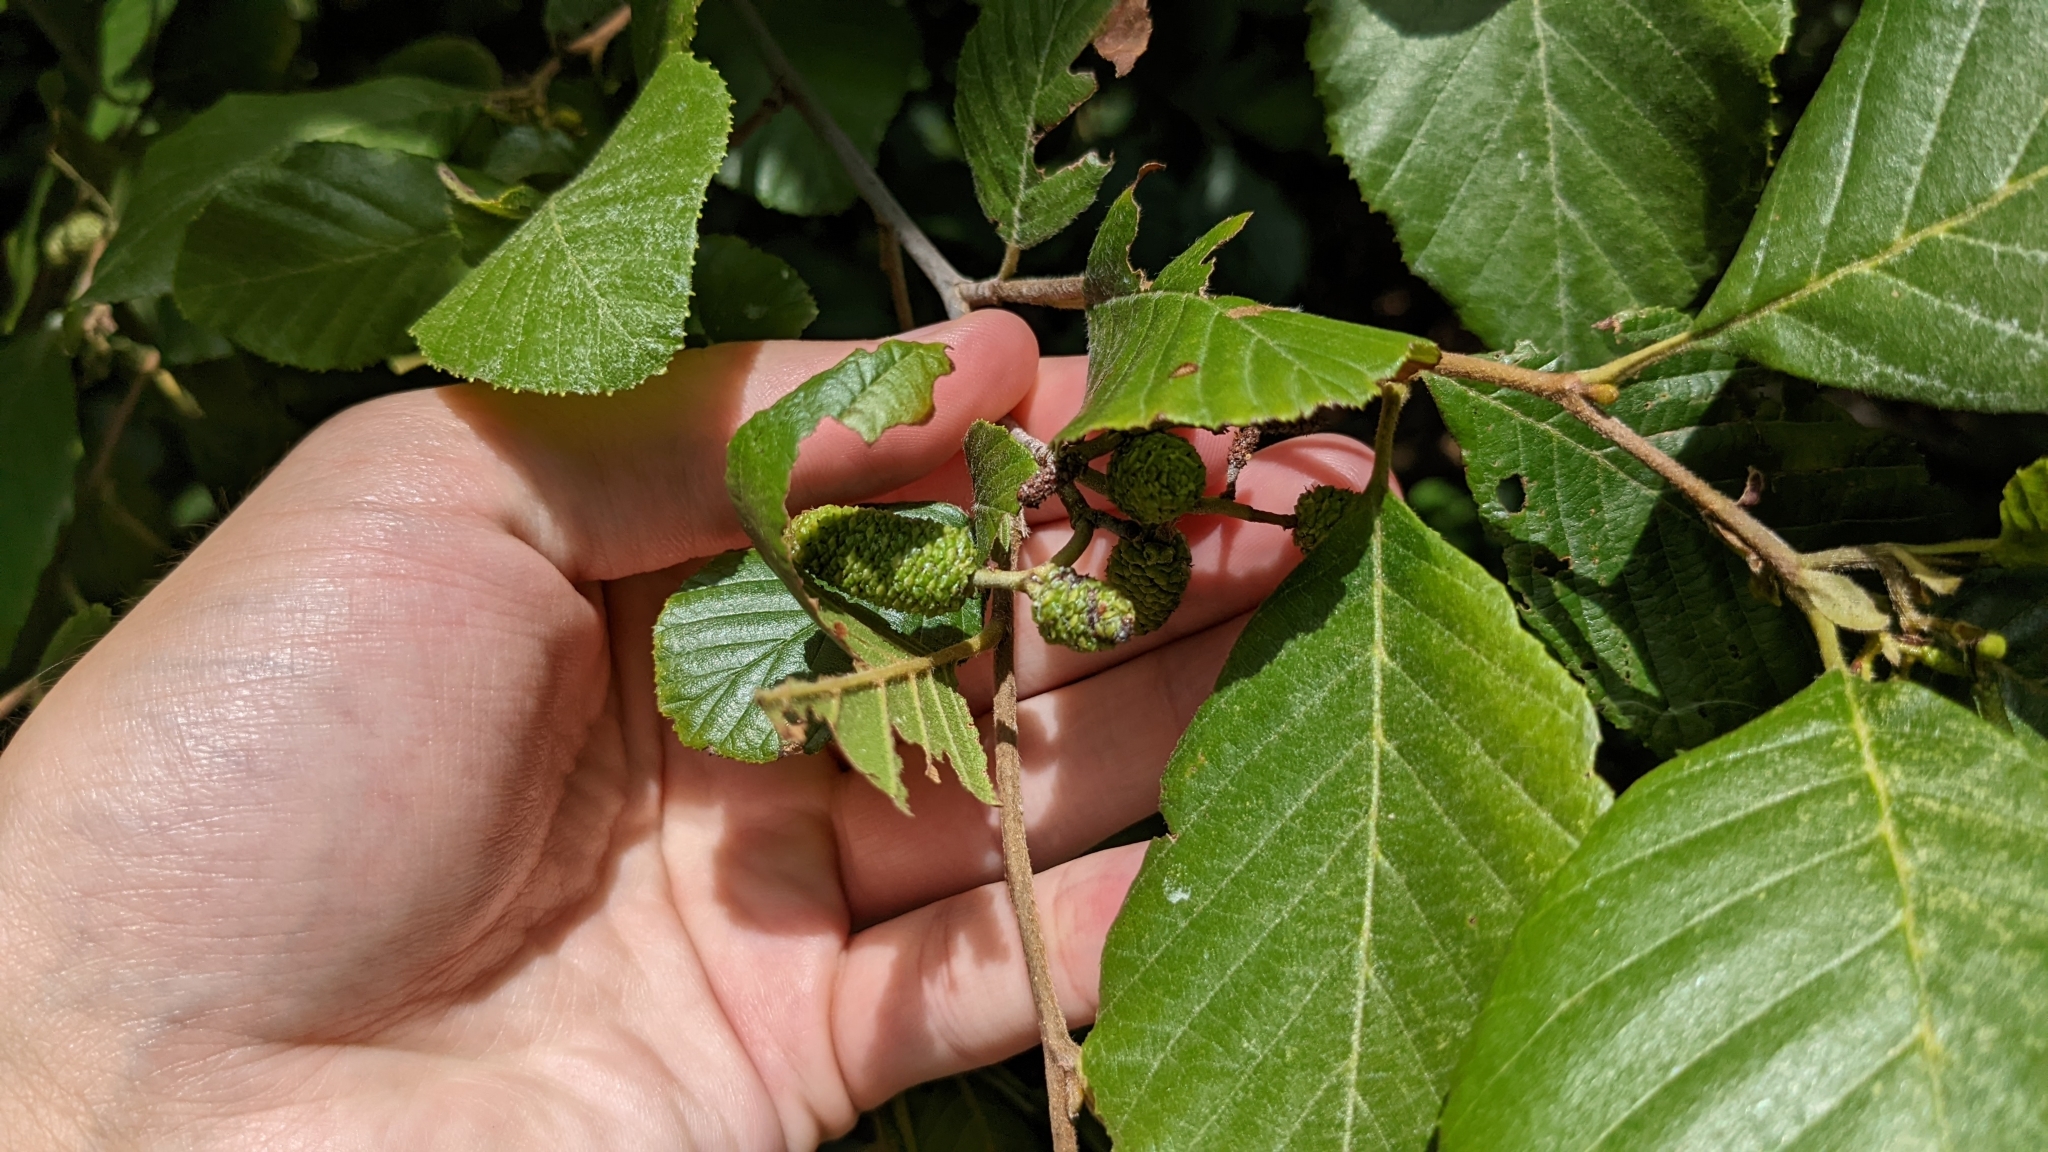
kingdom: Plantae
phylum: Tracheophyta
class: Magnoliopsida
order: Fagales
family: Betulaceae
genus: Alnus
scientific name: Alnus serrulata
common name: Hazel alder
